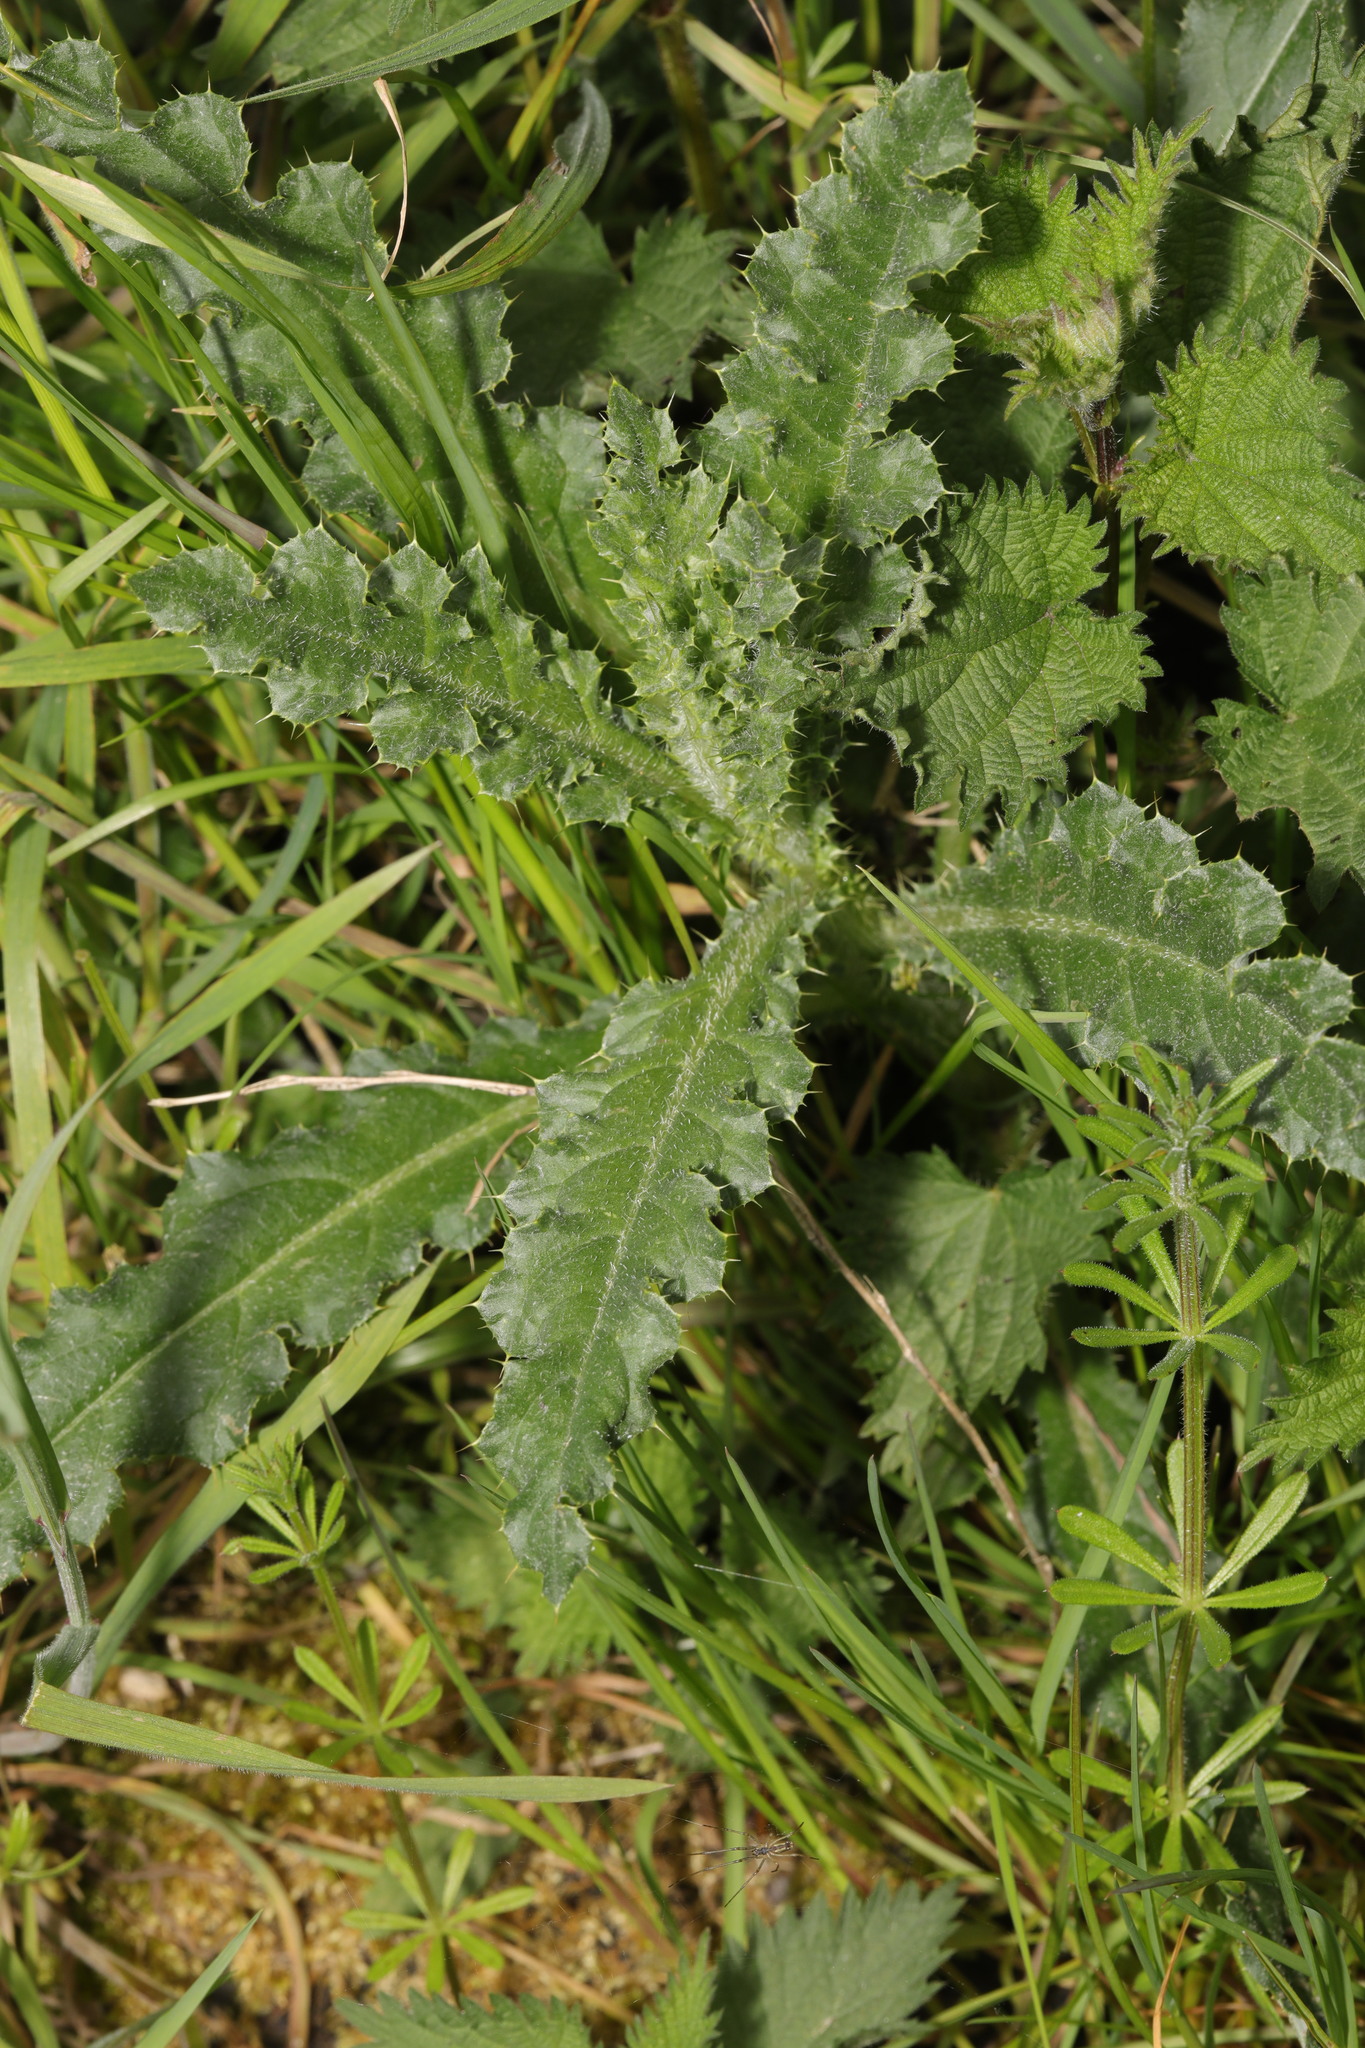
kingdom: Plantae
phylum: Tracheophyta
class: Magnoliopsida
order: Asterales
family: Asteraceae
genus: Cirsium
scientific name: Cirsium arvense
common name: Creeping thistle
